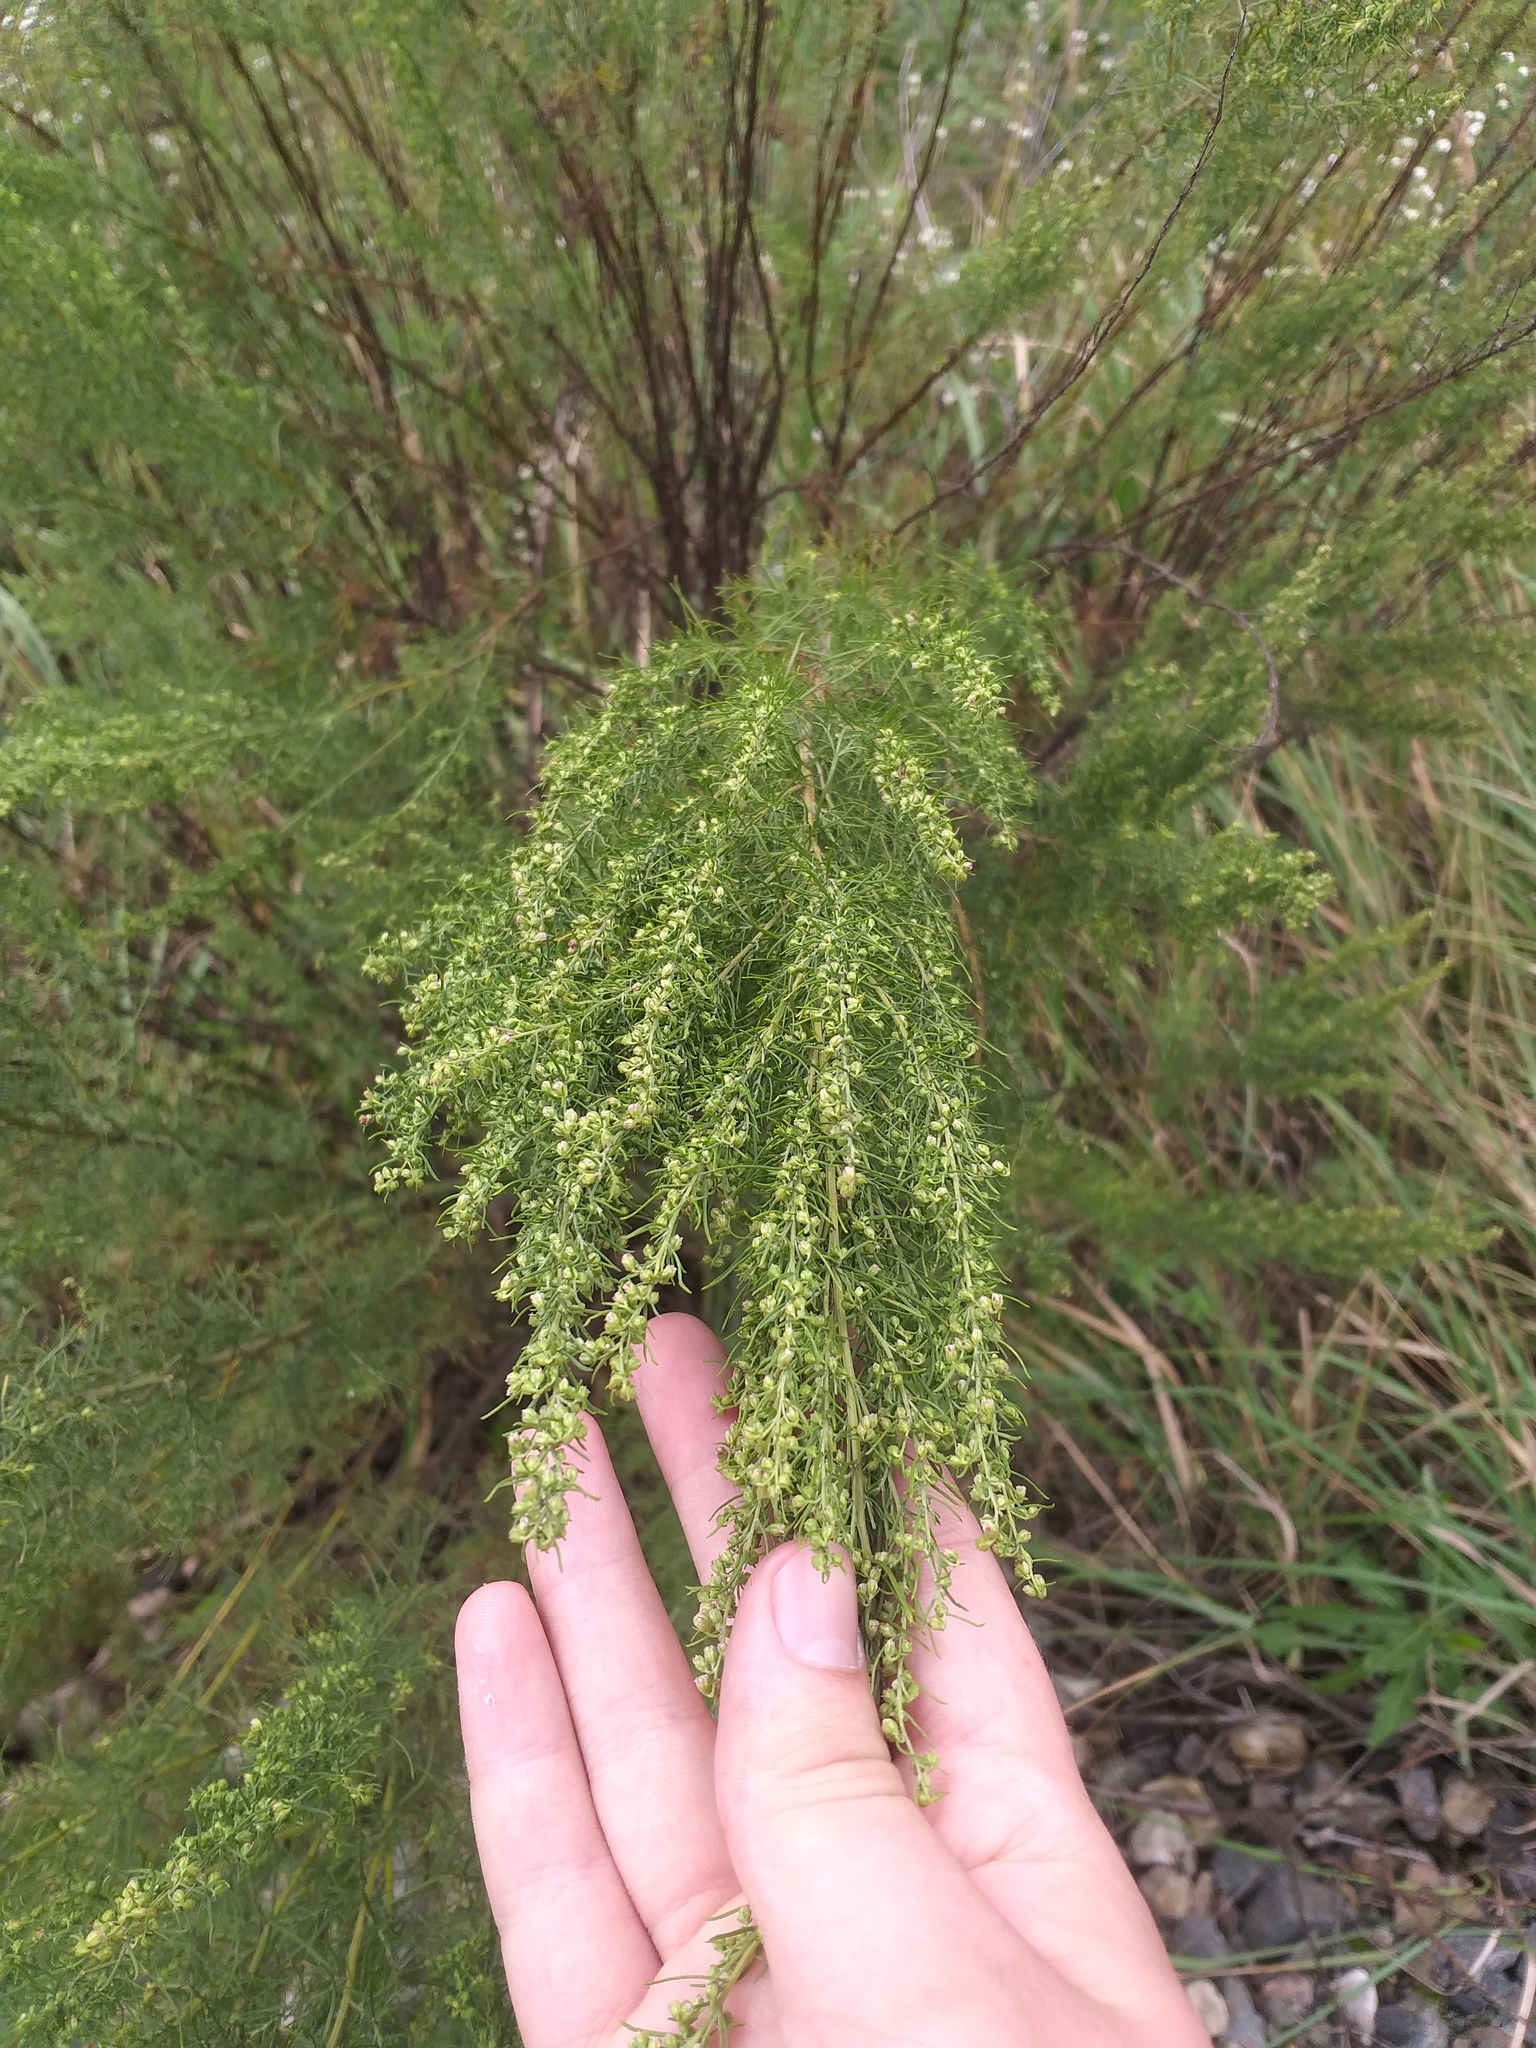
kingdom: Plantae
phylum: Tracheophyta
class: Magnoliopsida
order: Asterales
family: Asteraceae
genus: Artemisia
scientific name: Artemisia abrotanum
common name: Southernwood
